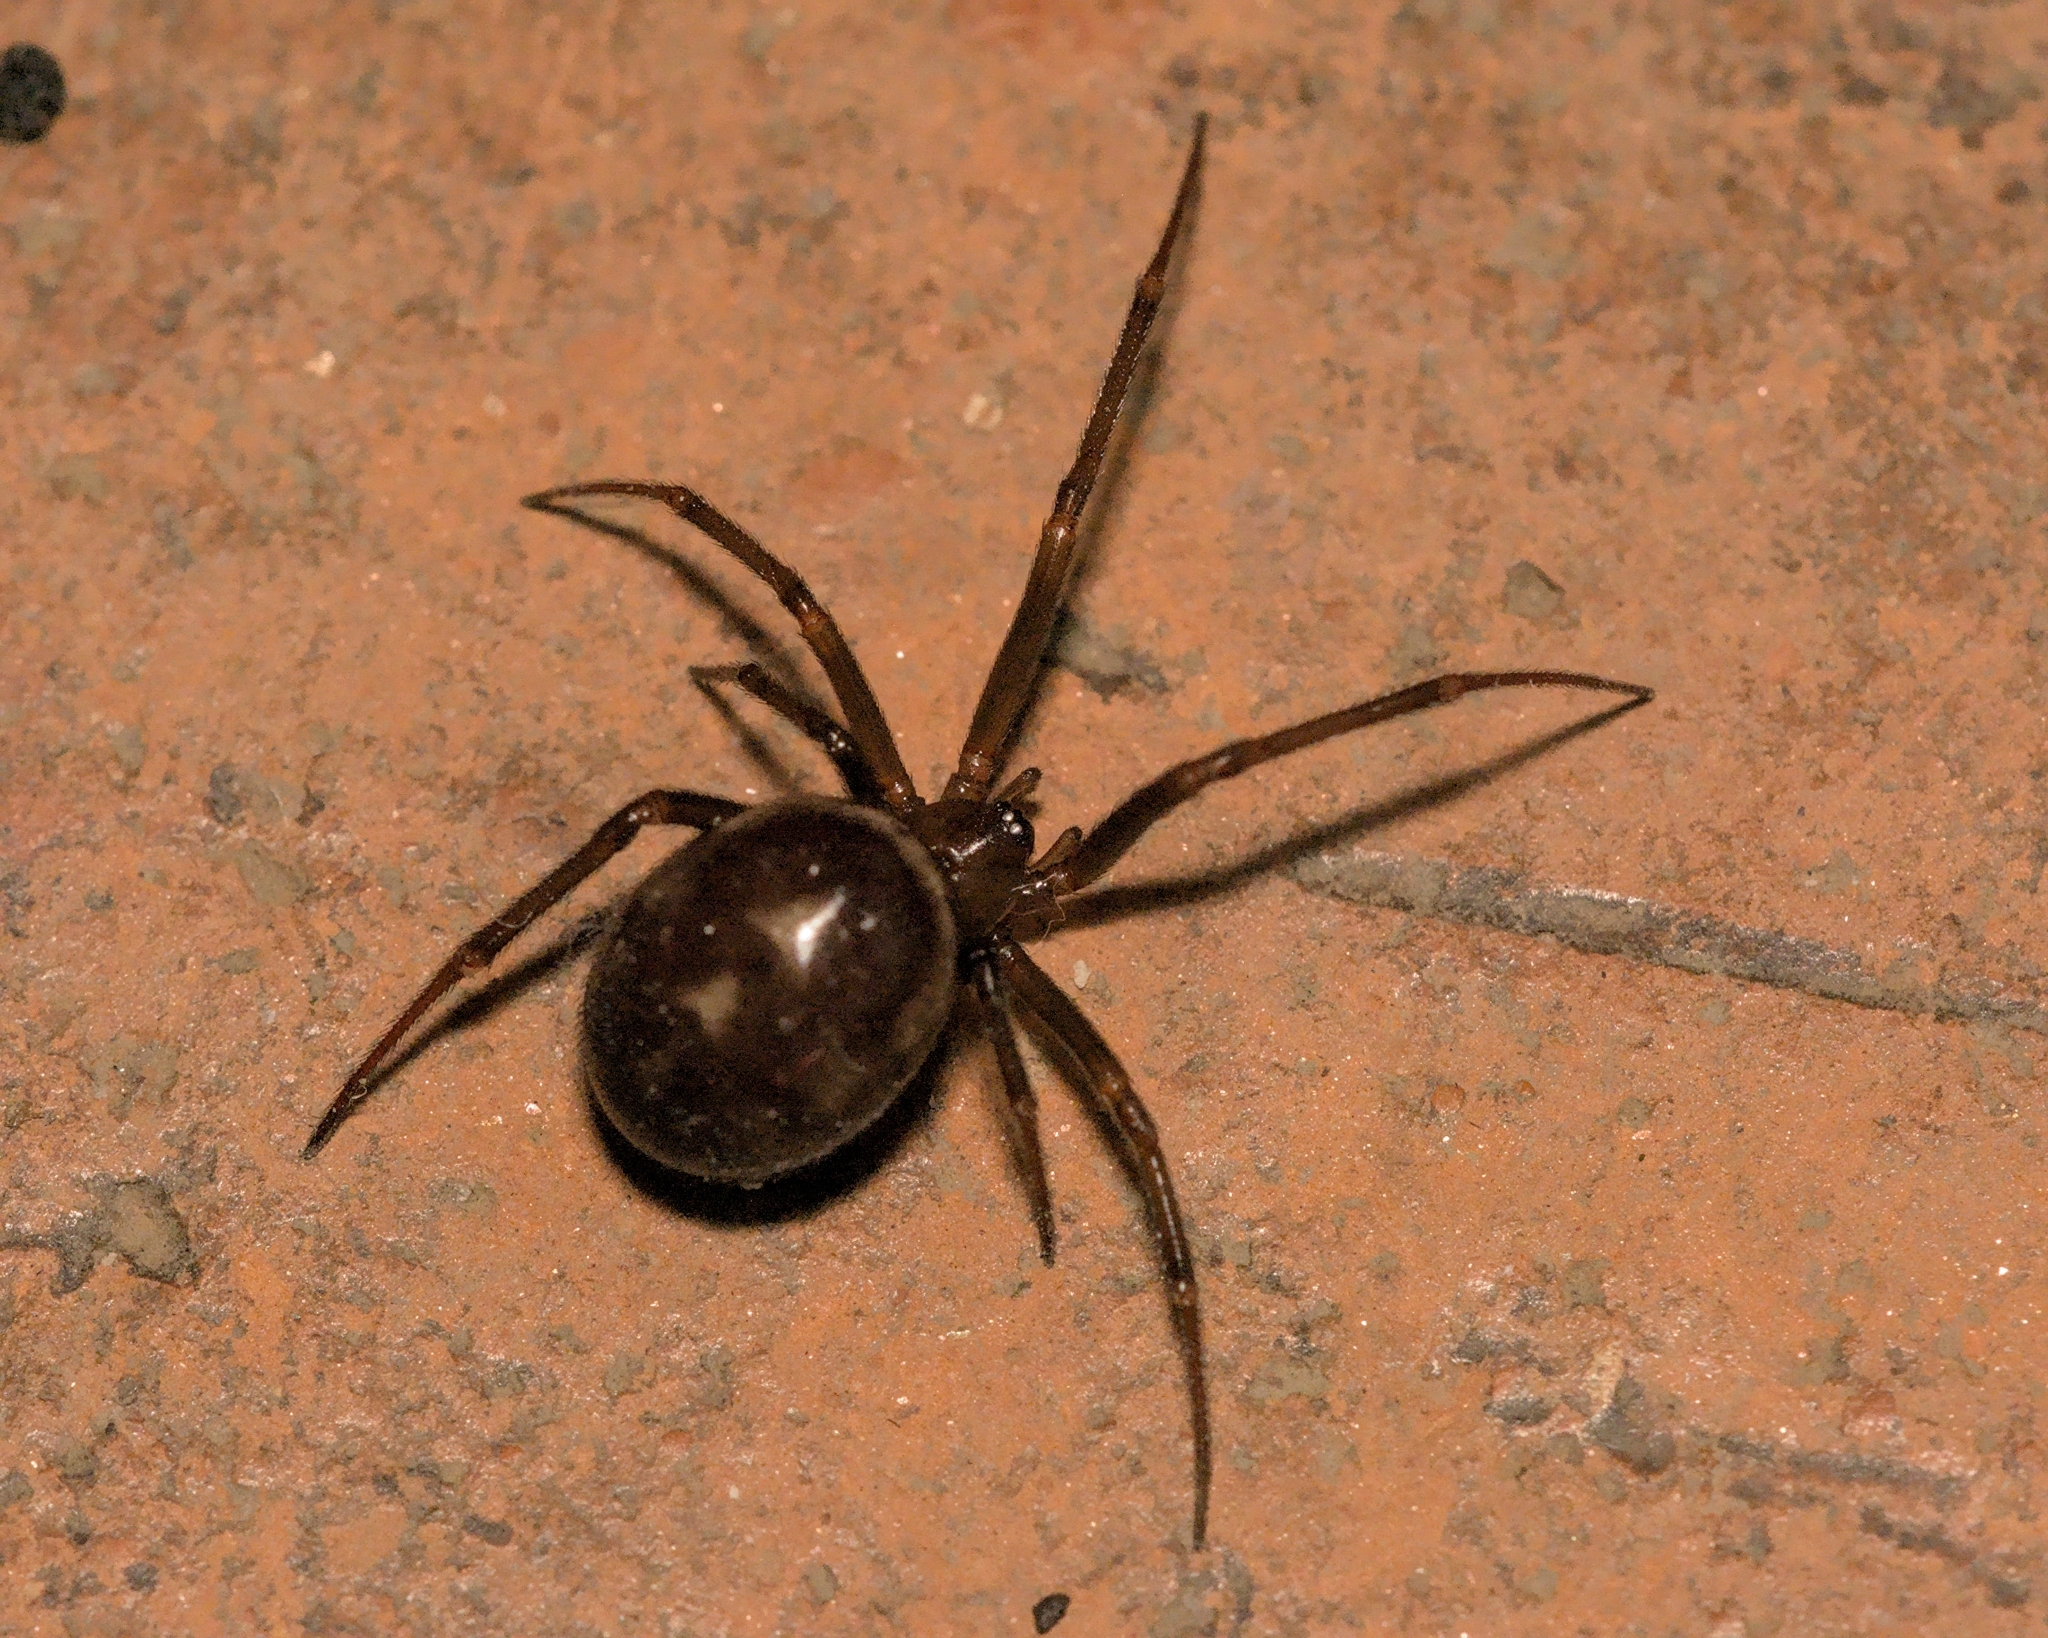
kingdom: Animalia
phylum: Arthropoda
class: Arachnida
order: Araneae
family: Theridiidae
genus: Steatoda
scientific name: Steatoda grossa
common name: False black widow
